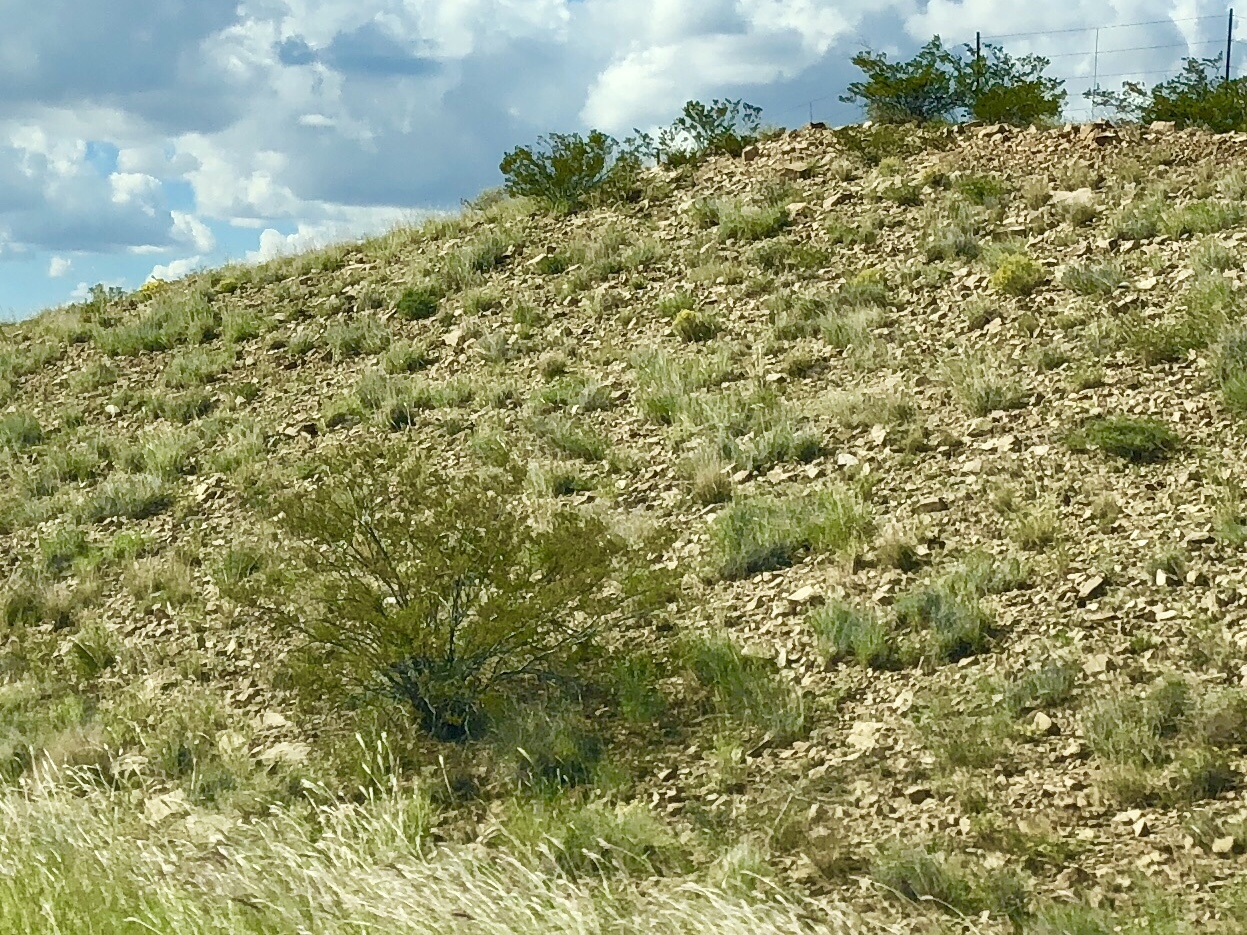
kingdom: Plantae
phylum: Tracheophyta
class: Magnoliopsida
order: Zygophyllales
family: Zygophyllaceae
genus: Larrea
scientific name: Larrea tridentata
